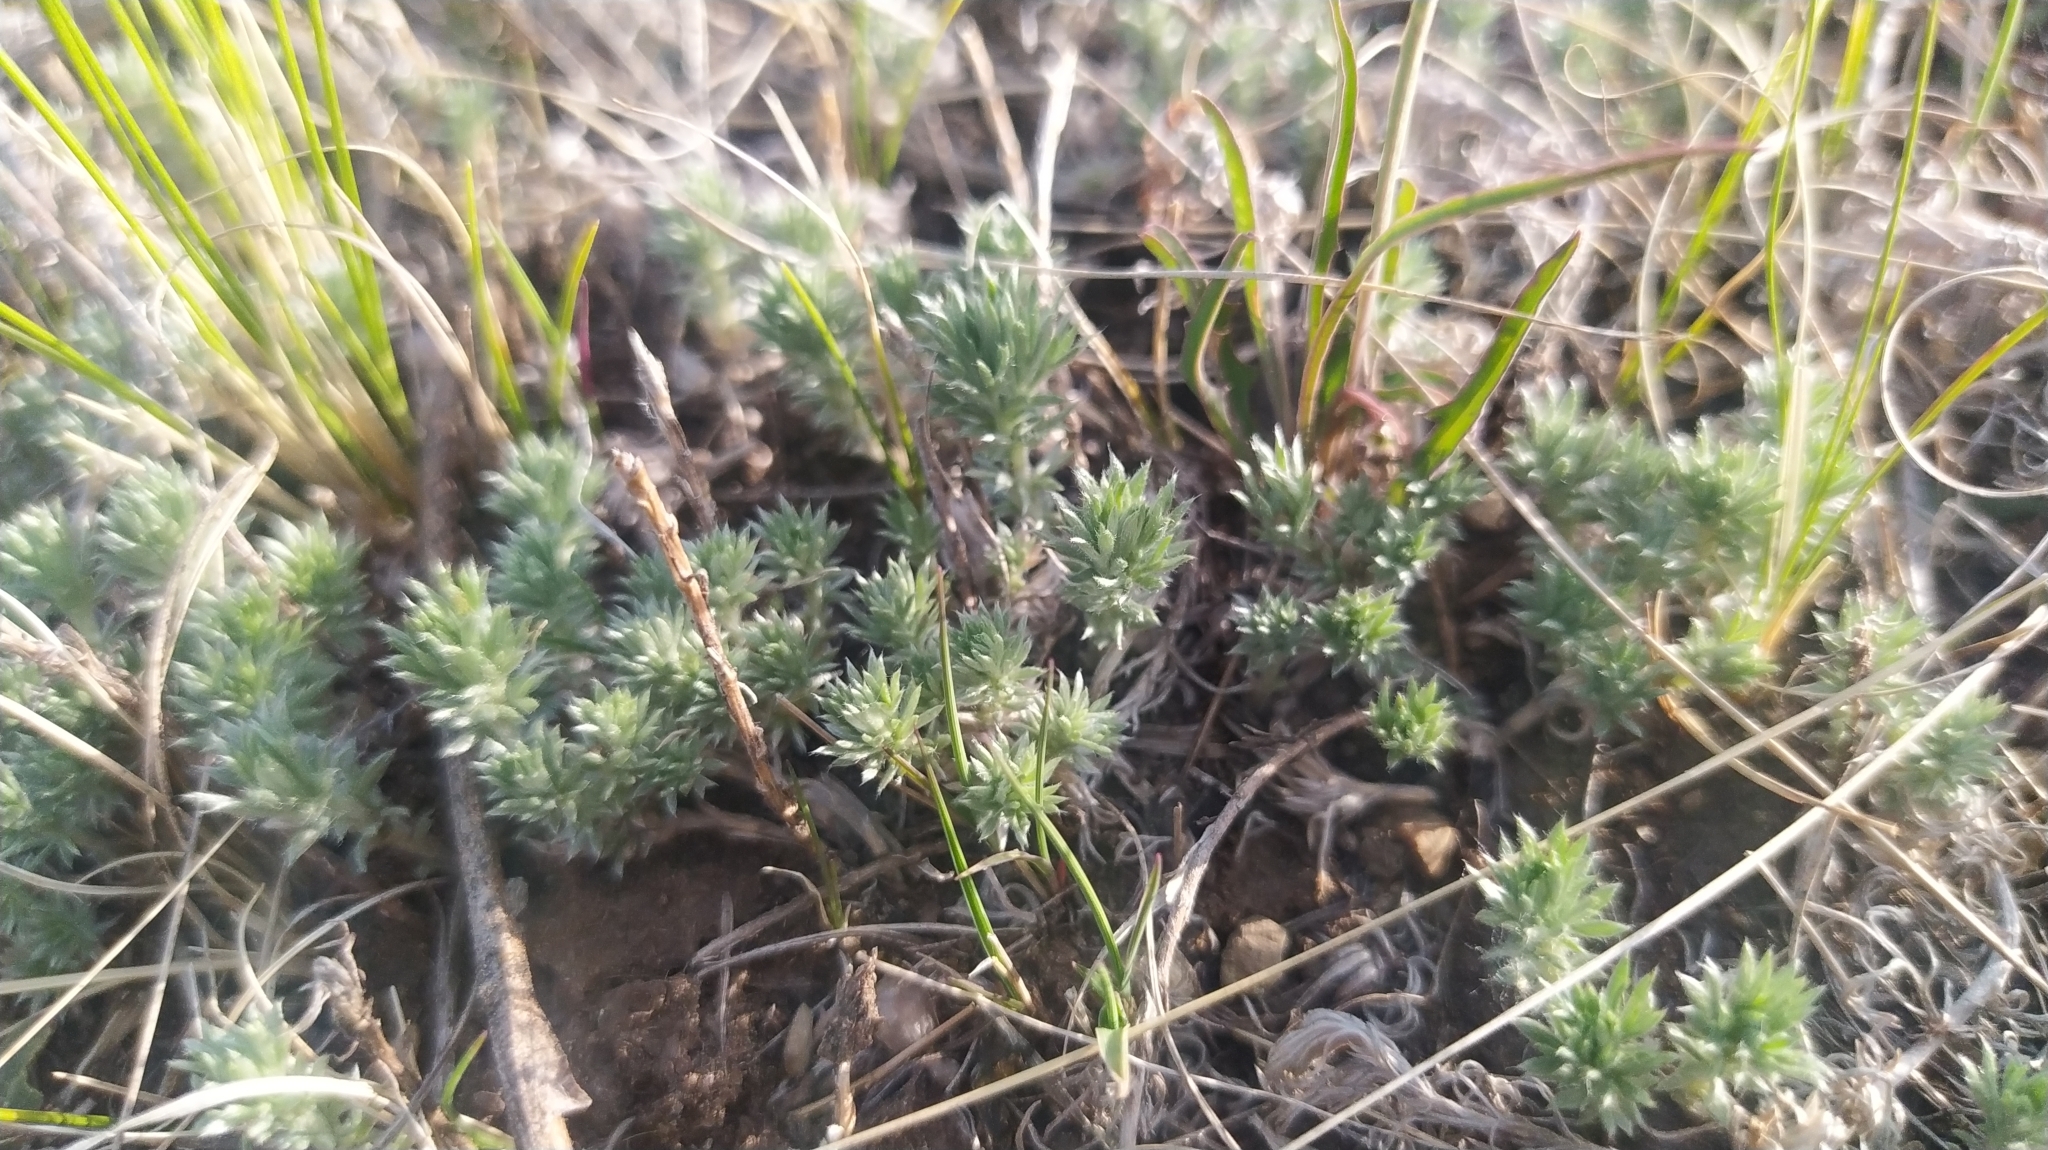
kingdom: Plantae
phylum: Tracheophyta
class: Magnoliopsida
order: Asterales
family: Asteraceae
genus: Artemisia
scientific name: Artemisia frigida
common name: Prairie sagewort
